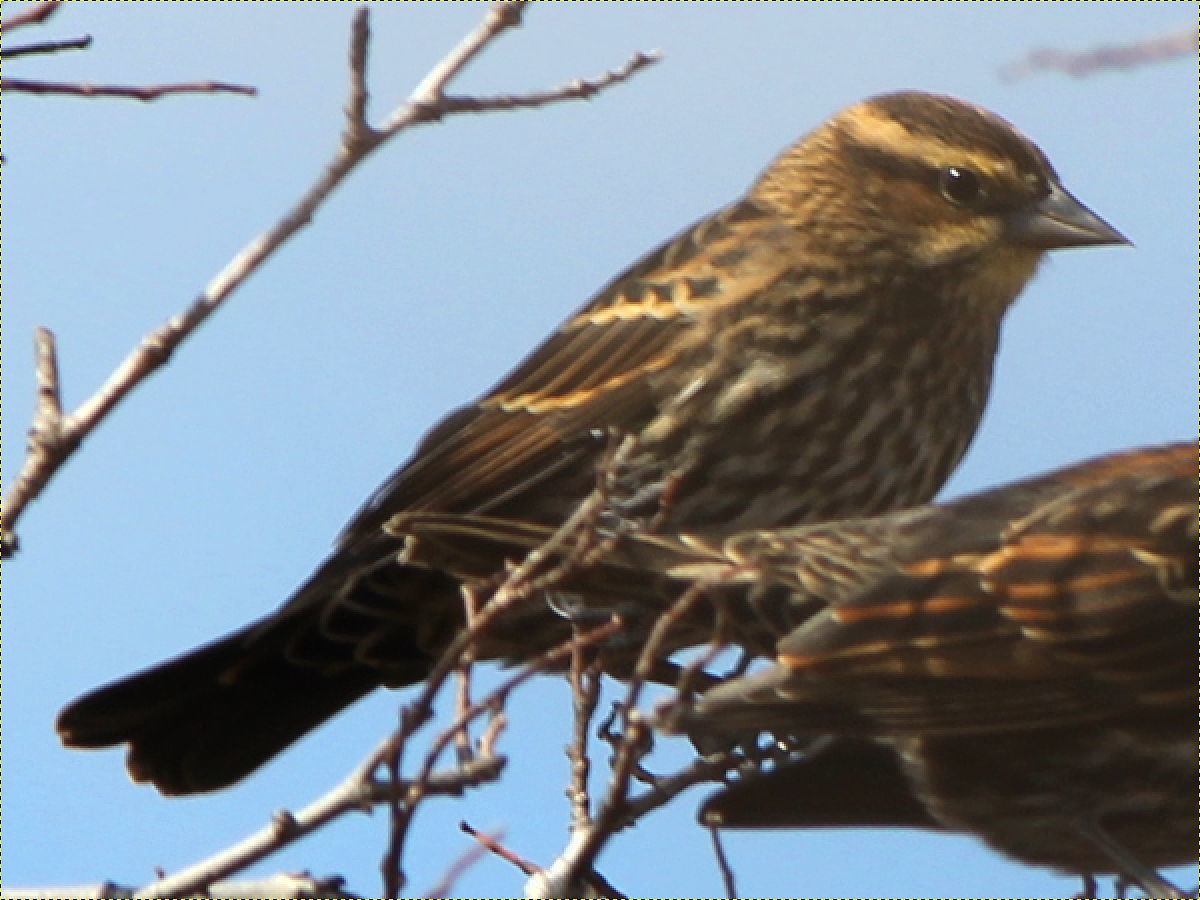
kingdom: Animalia
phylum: Chordata
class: Aves
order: Passeriformes
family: Icteridae
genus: Agelaius
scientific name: Agelaius phoeniceus
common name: Red-winged blackbird
